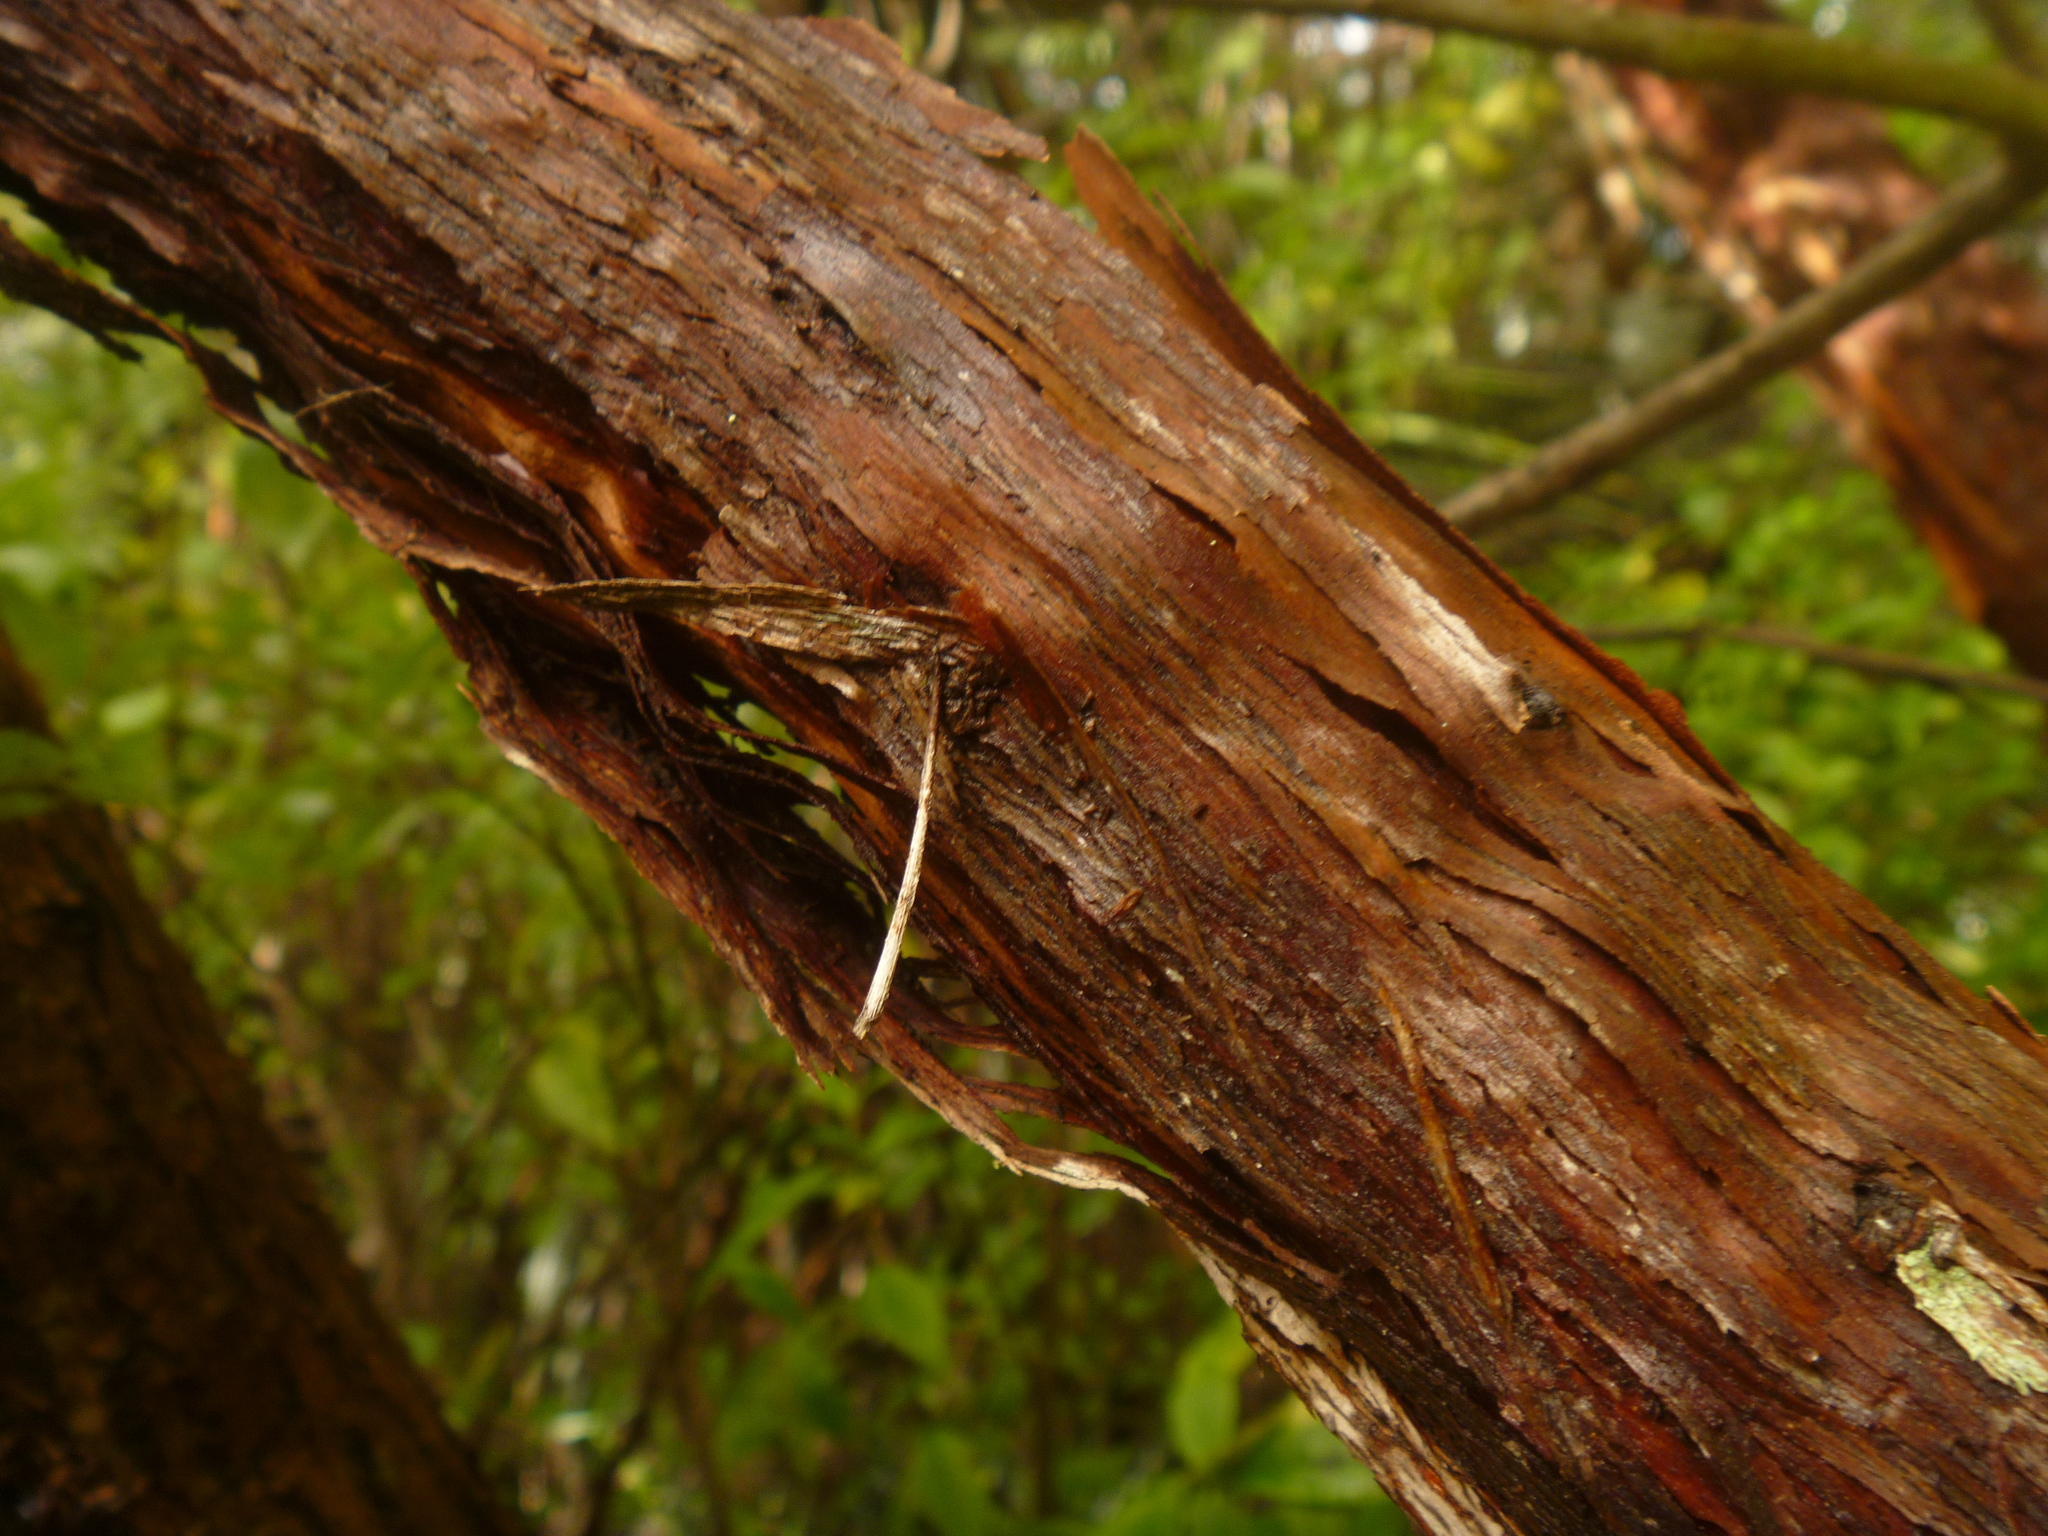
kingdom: Plantae
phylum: Tracheophyta
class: Magnoliopsida
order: Sapindales
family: Sapindaceae
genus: Dodonaea
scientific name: Dodonaea viscosa
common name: Hopbush
